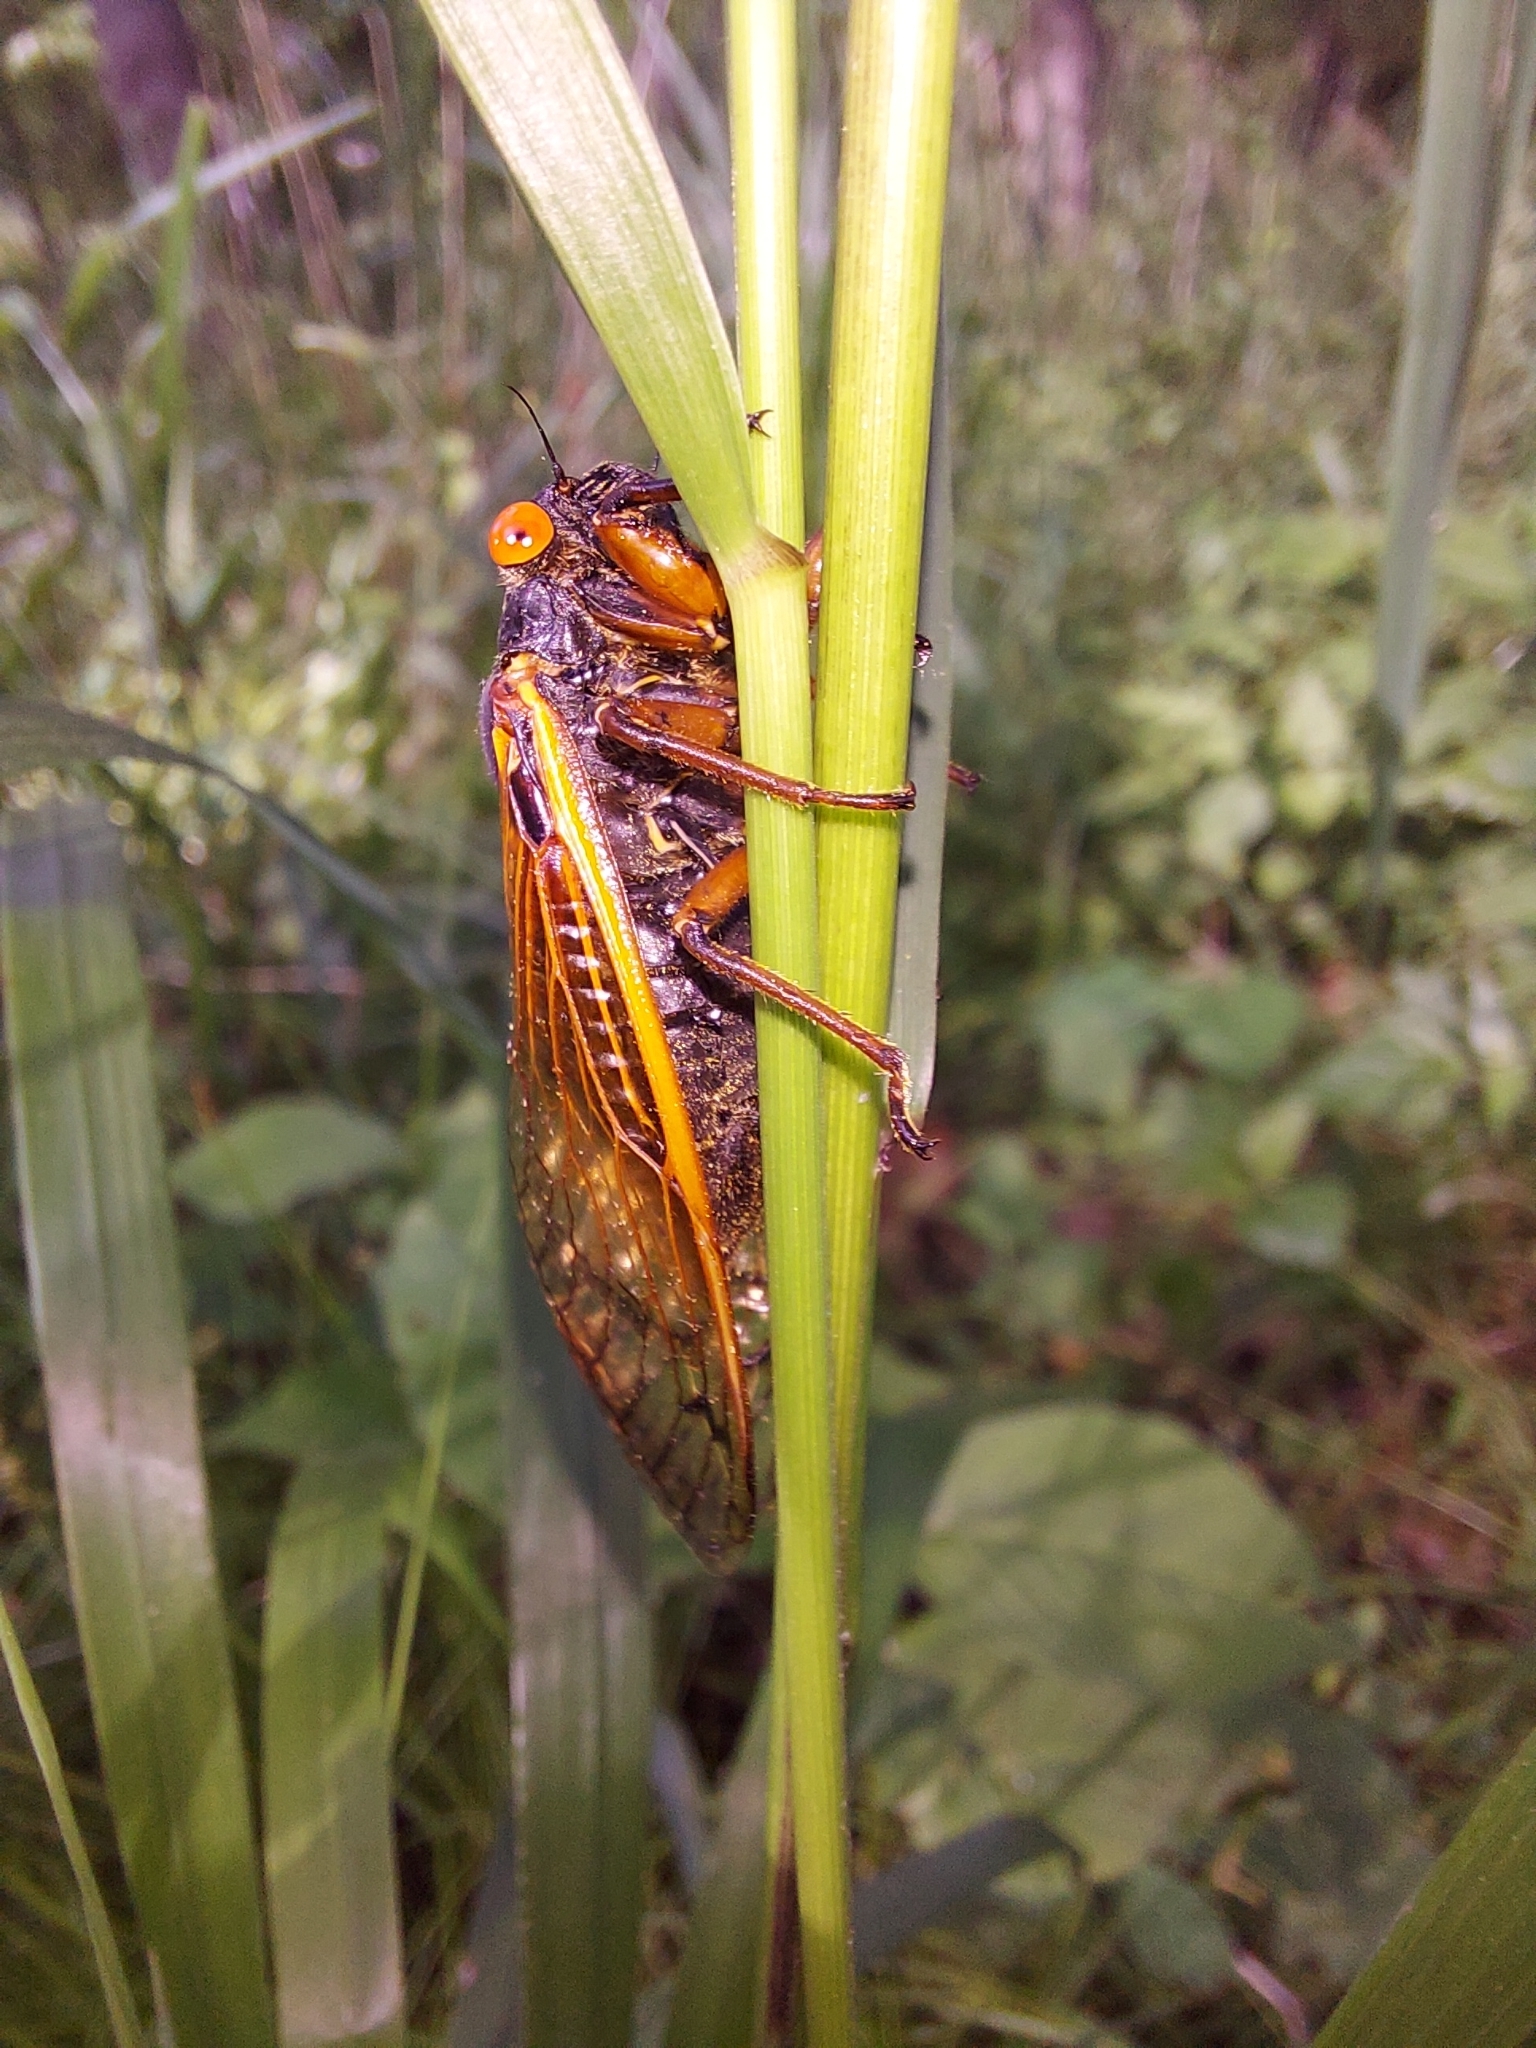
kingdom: Animalia
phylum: Arthropoda
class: Insecta
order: Hemiptera
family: Cicadidae
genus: Magicicada
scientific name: Magicicada cassini
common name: Cassin's 17-year cicada
